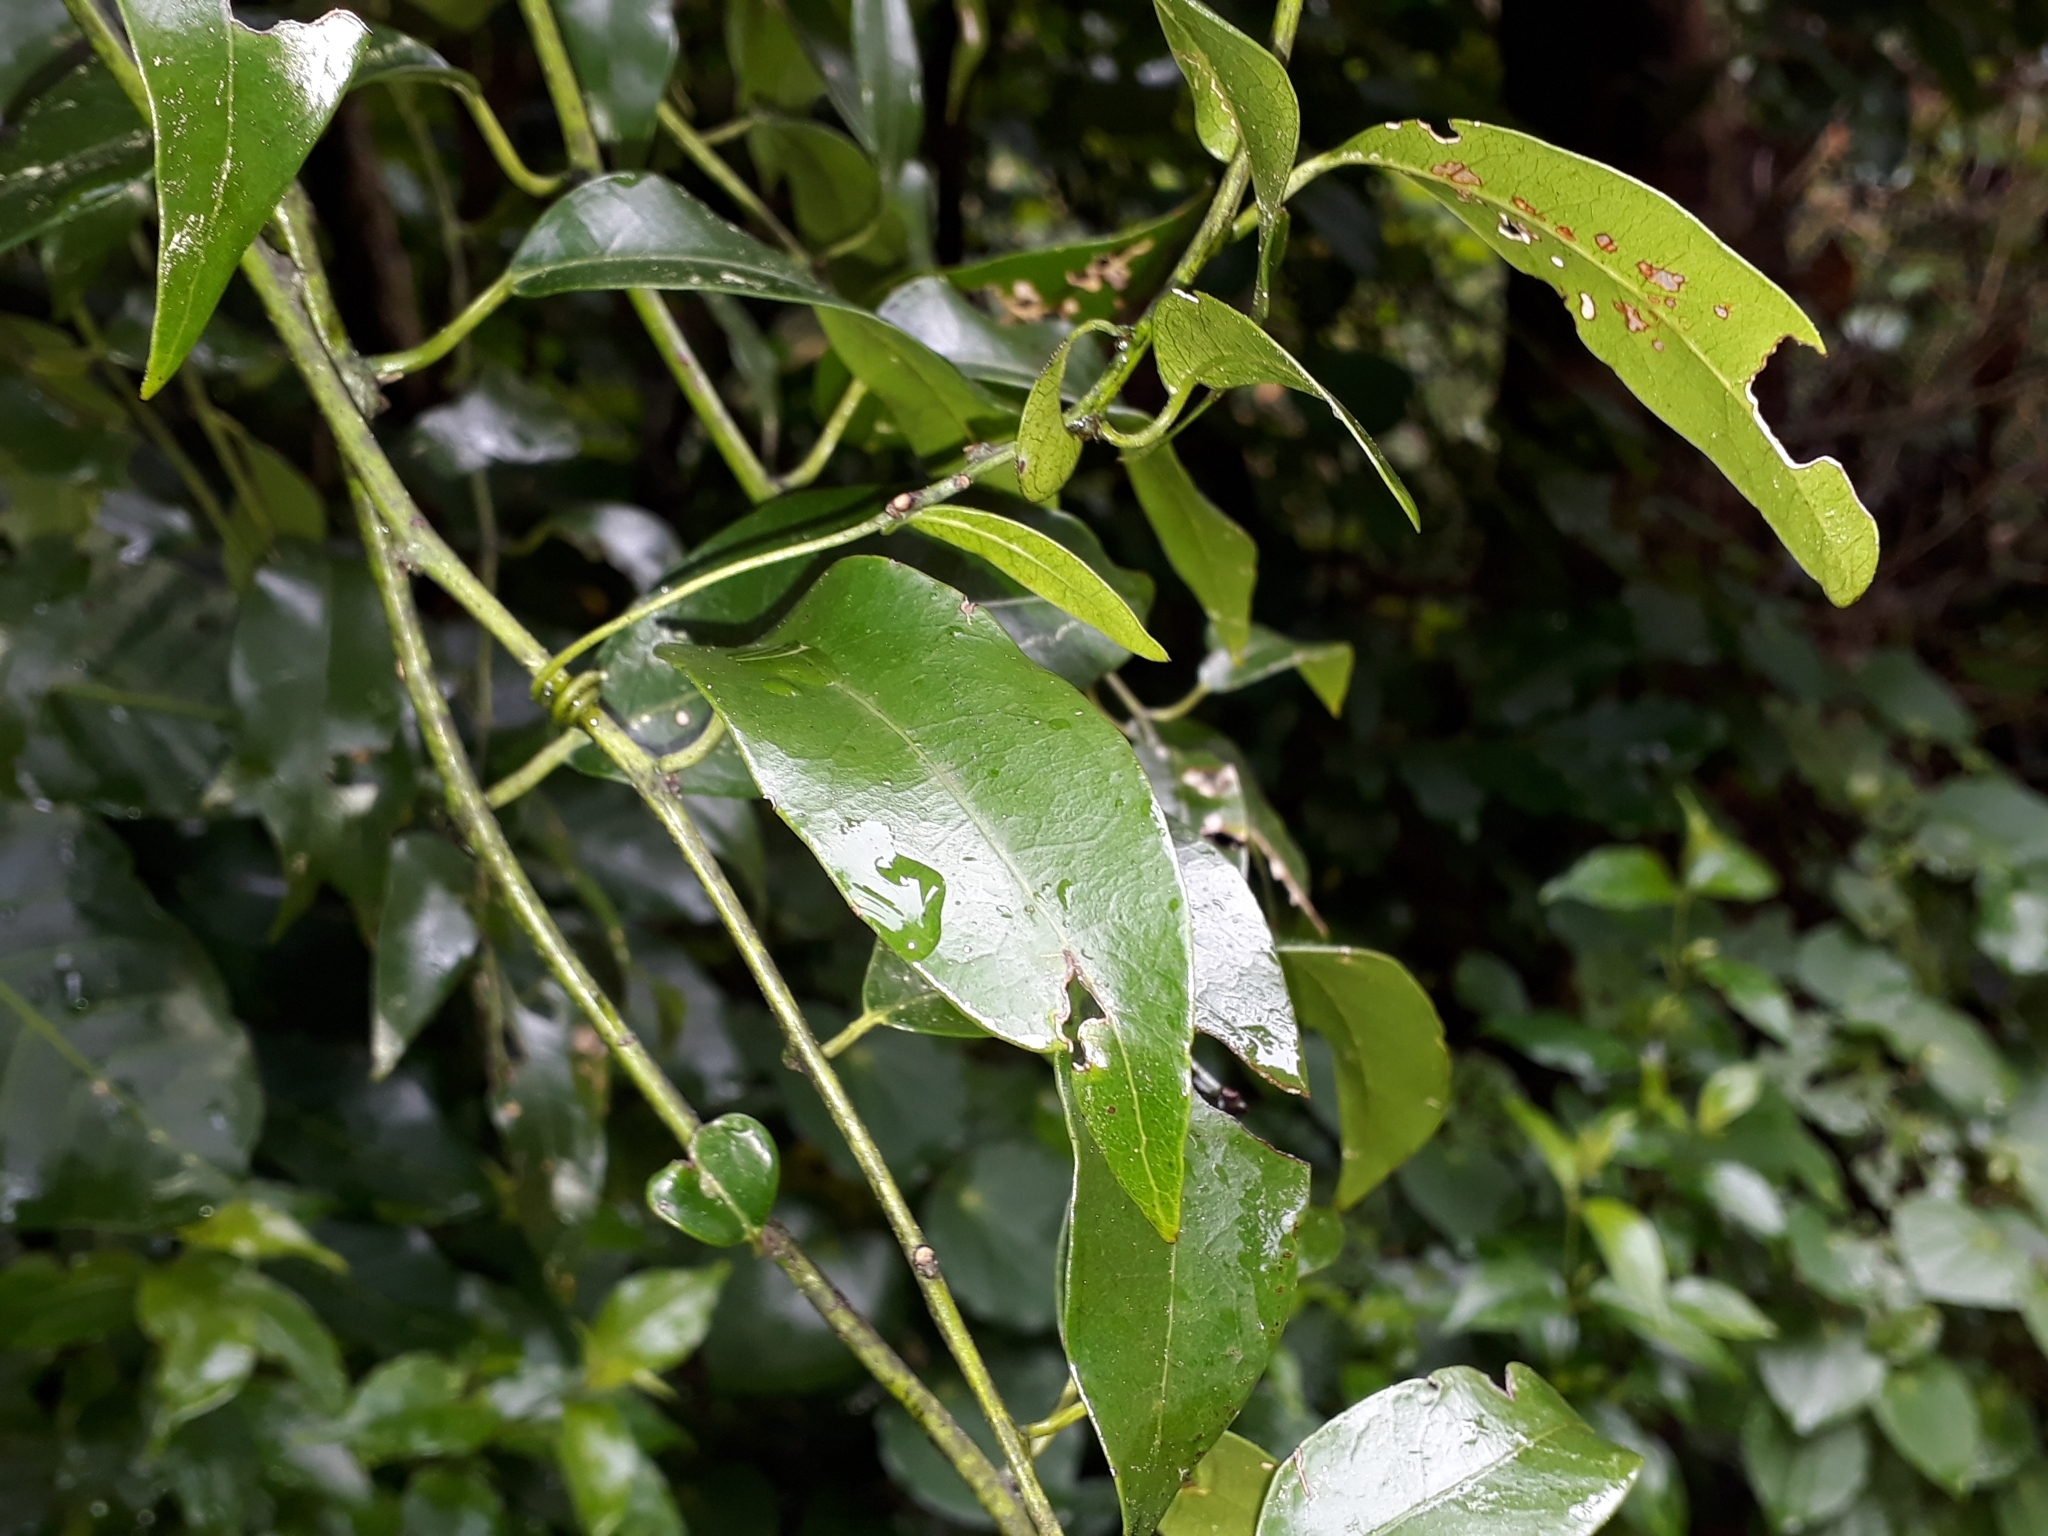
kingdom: Plantae
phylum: Tracheophyta
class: Magnoliopsida
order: Malpighiales
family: Passifloraceae
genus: Passiflora
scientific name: Passiflora tetrandra
